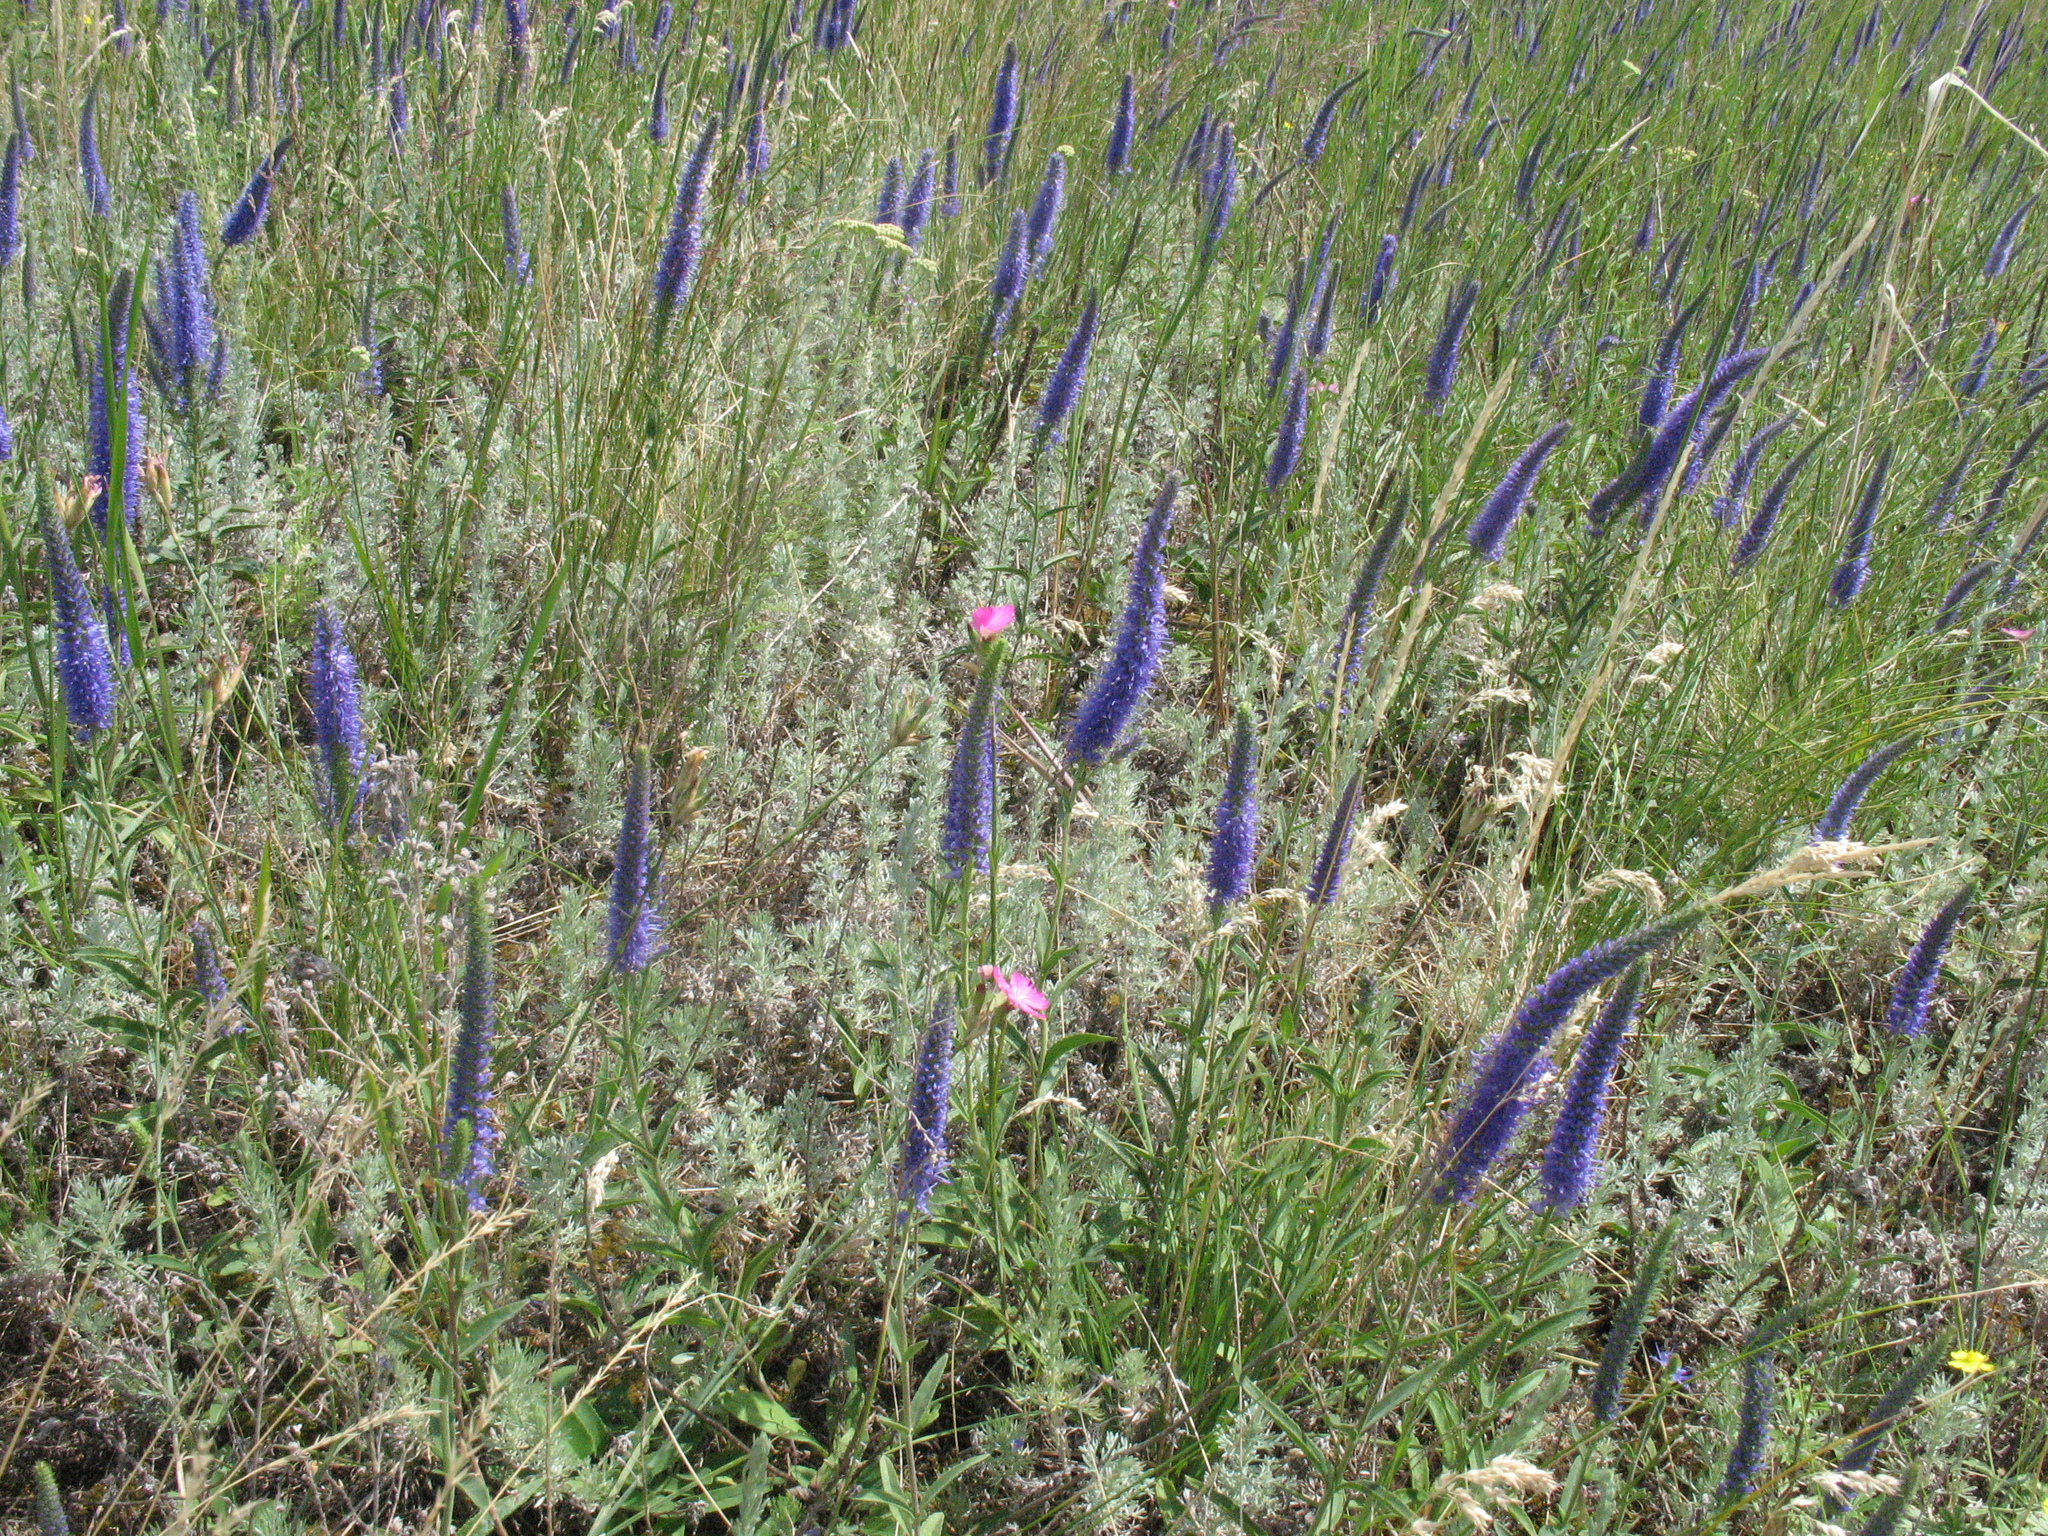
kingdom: Plantae
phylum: Tracheophyta
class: Magnoliopsida
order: Lamiales
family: Plantaginaceae
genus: Veronica
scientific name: Veronica spicata
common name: Spiked speedwell
